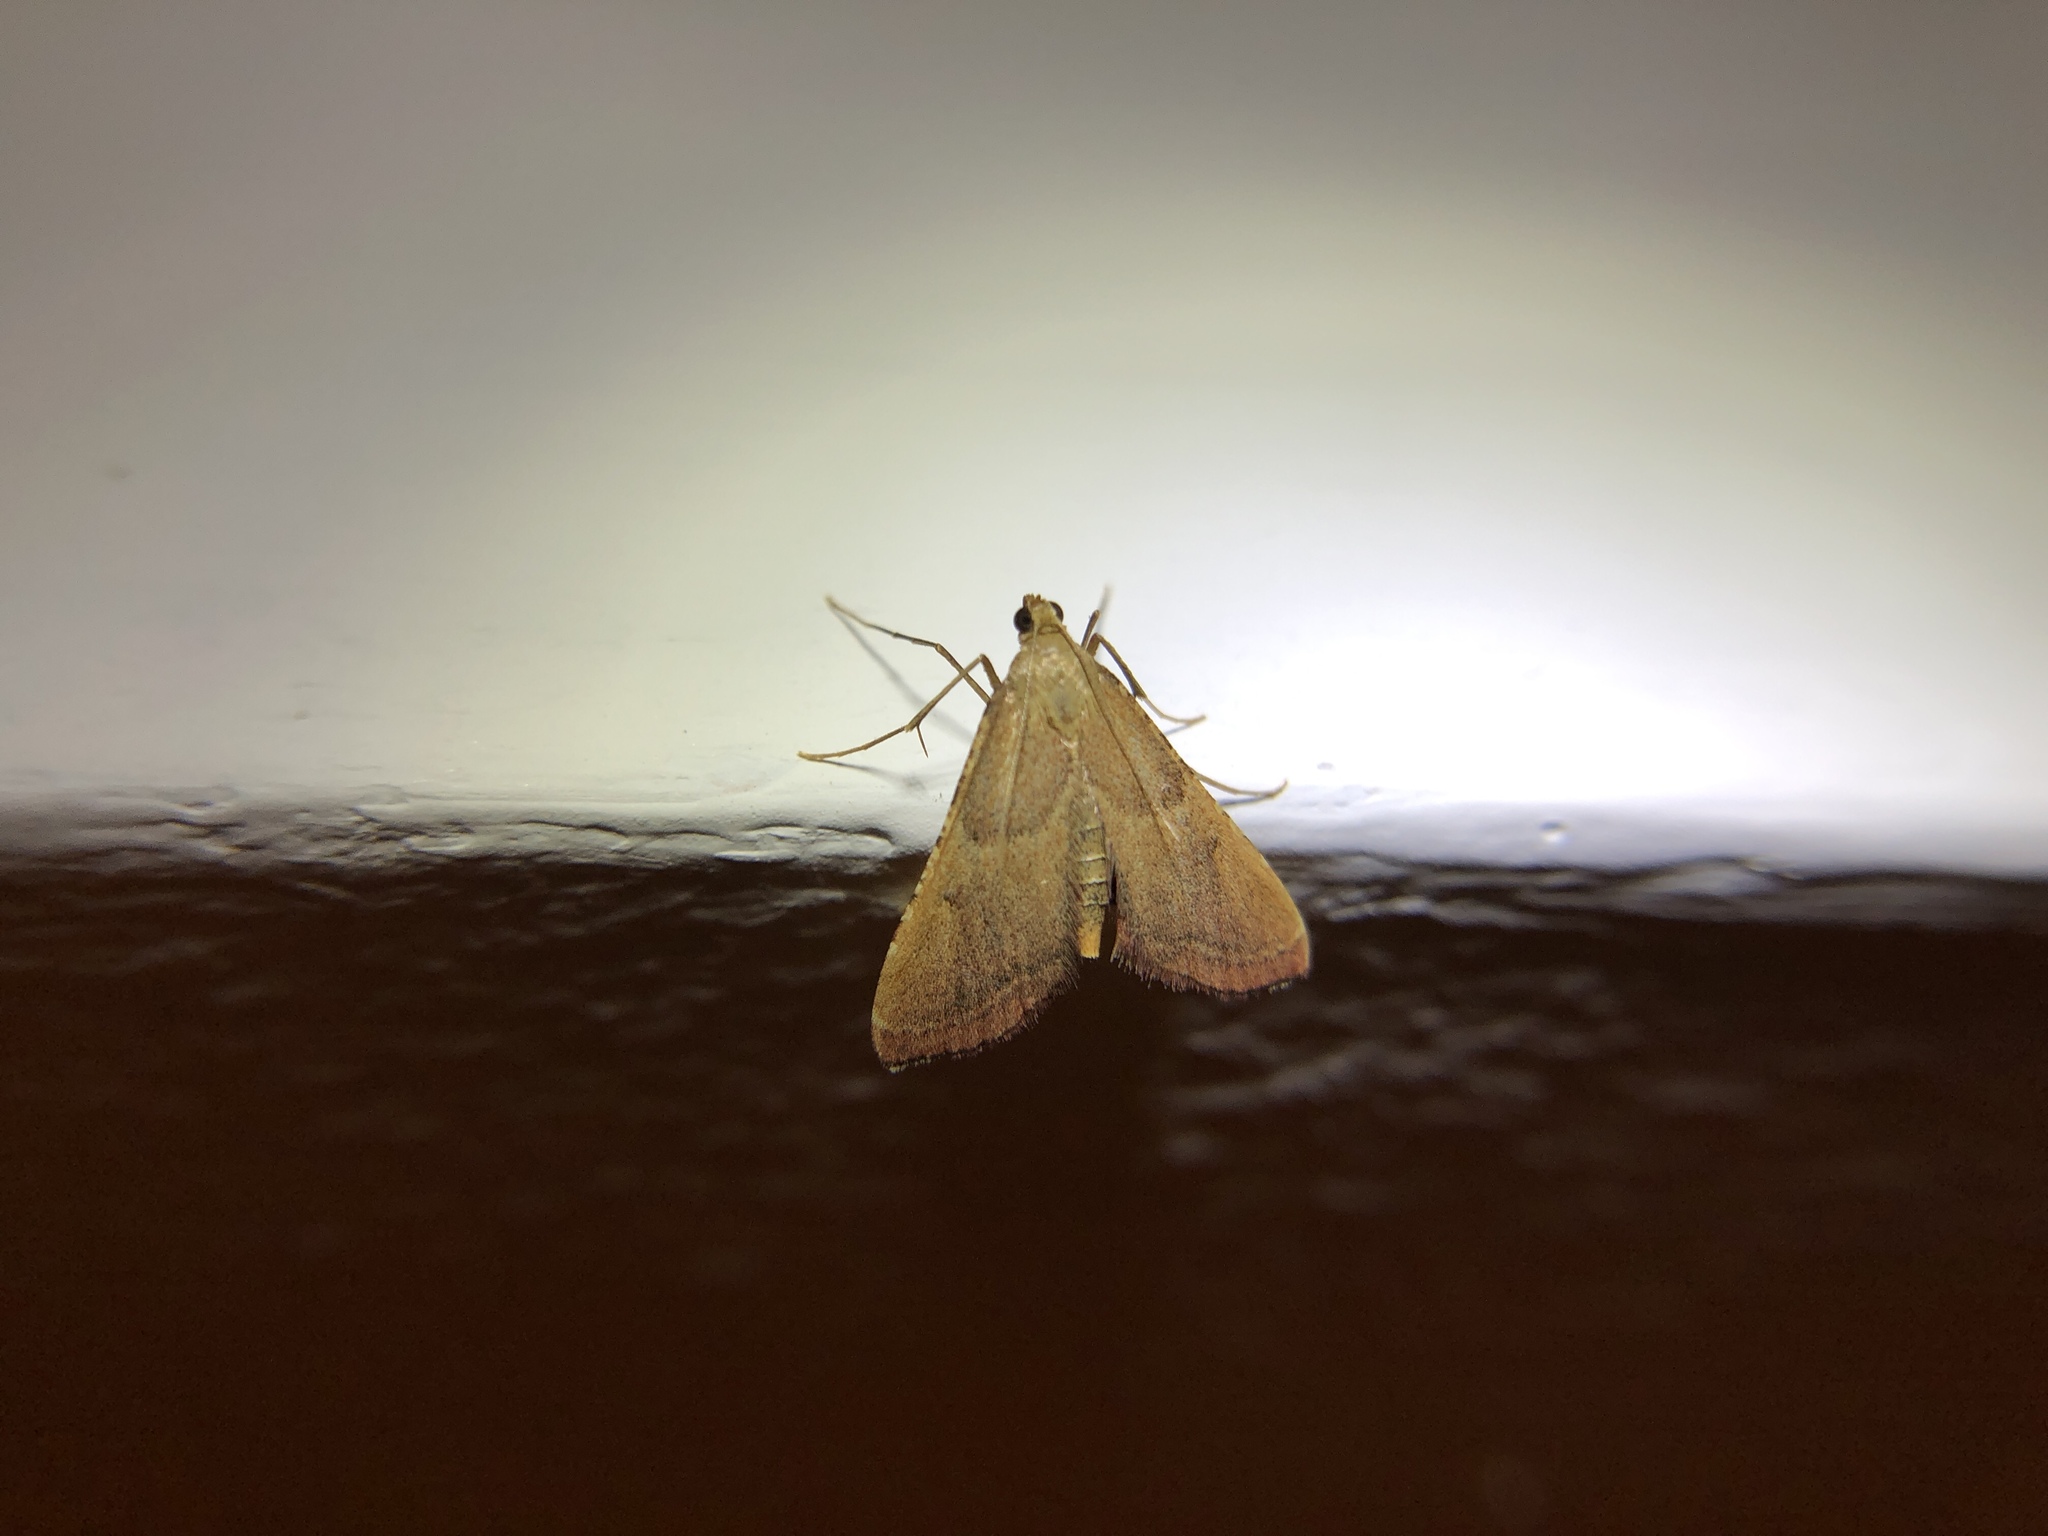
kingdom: Animalia
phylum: Arthropoda
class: Insecta
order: Lepidoptera
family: Pyralidae
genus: Endotricha
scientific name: Endotricha flammealis
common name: Rosy tabby
